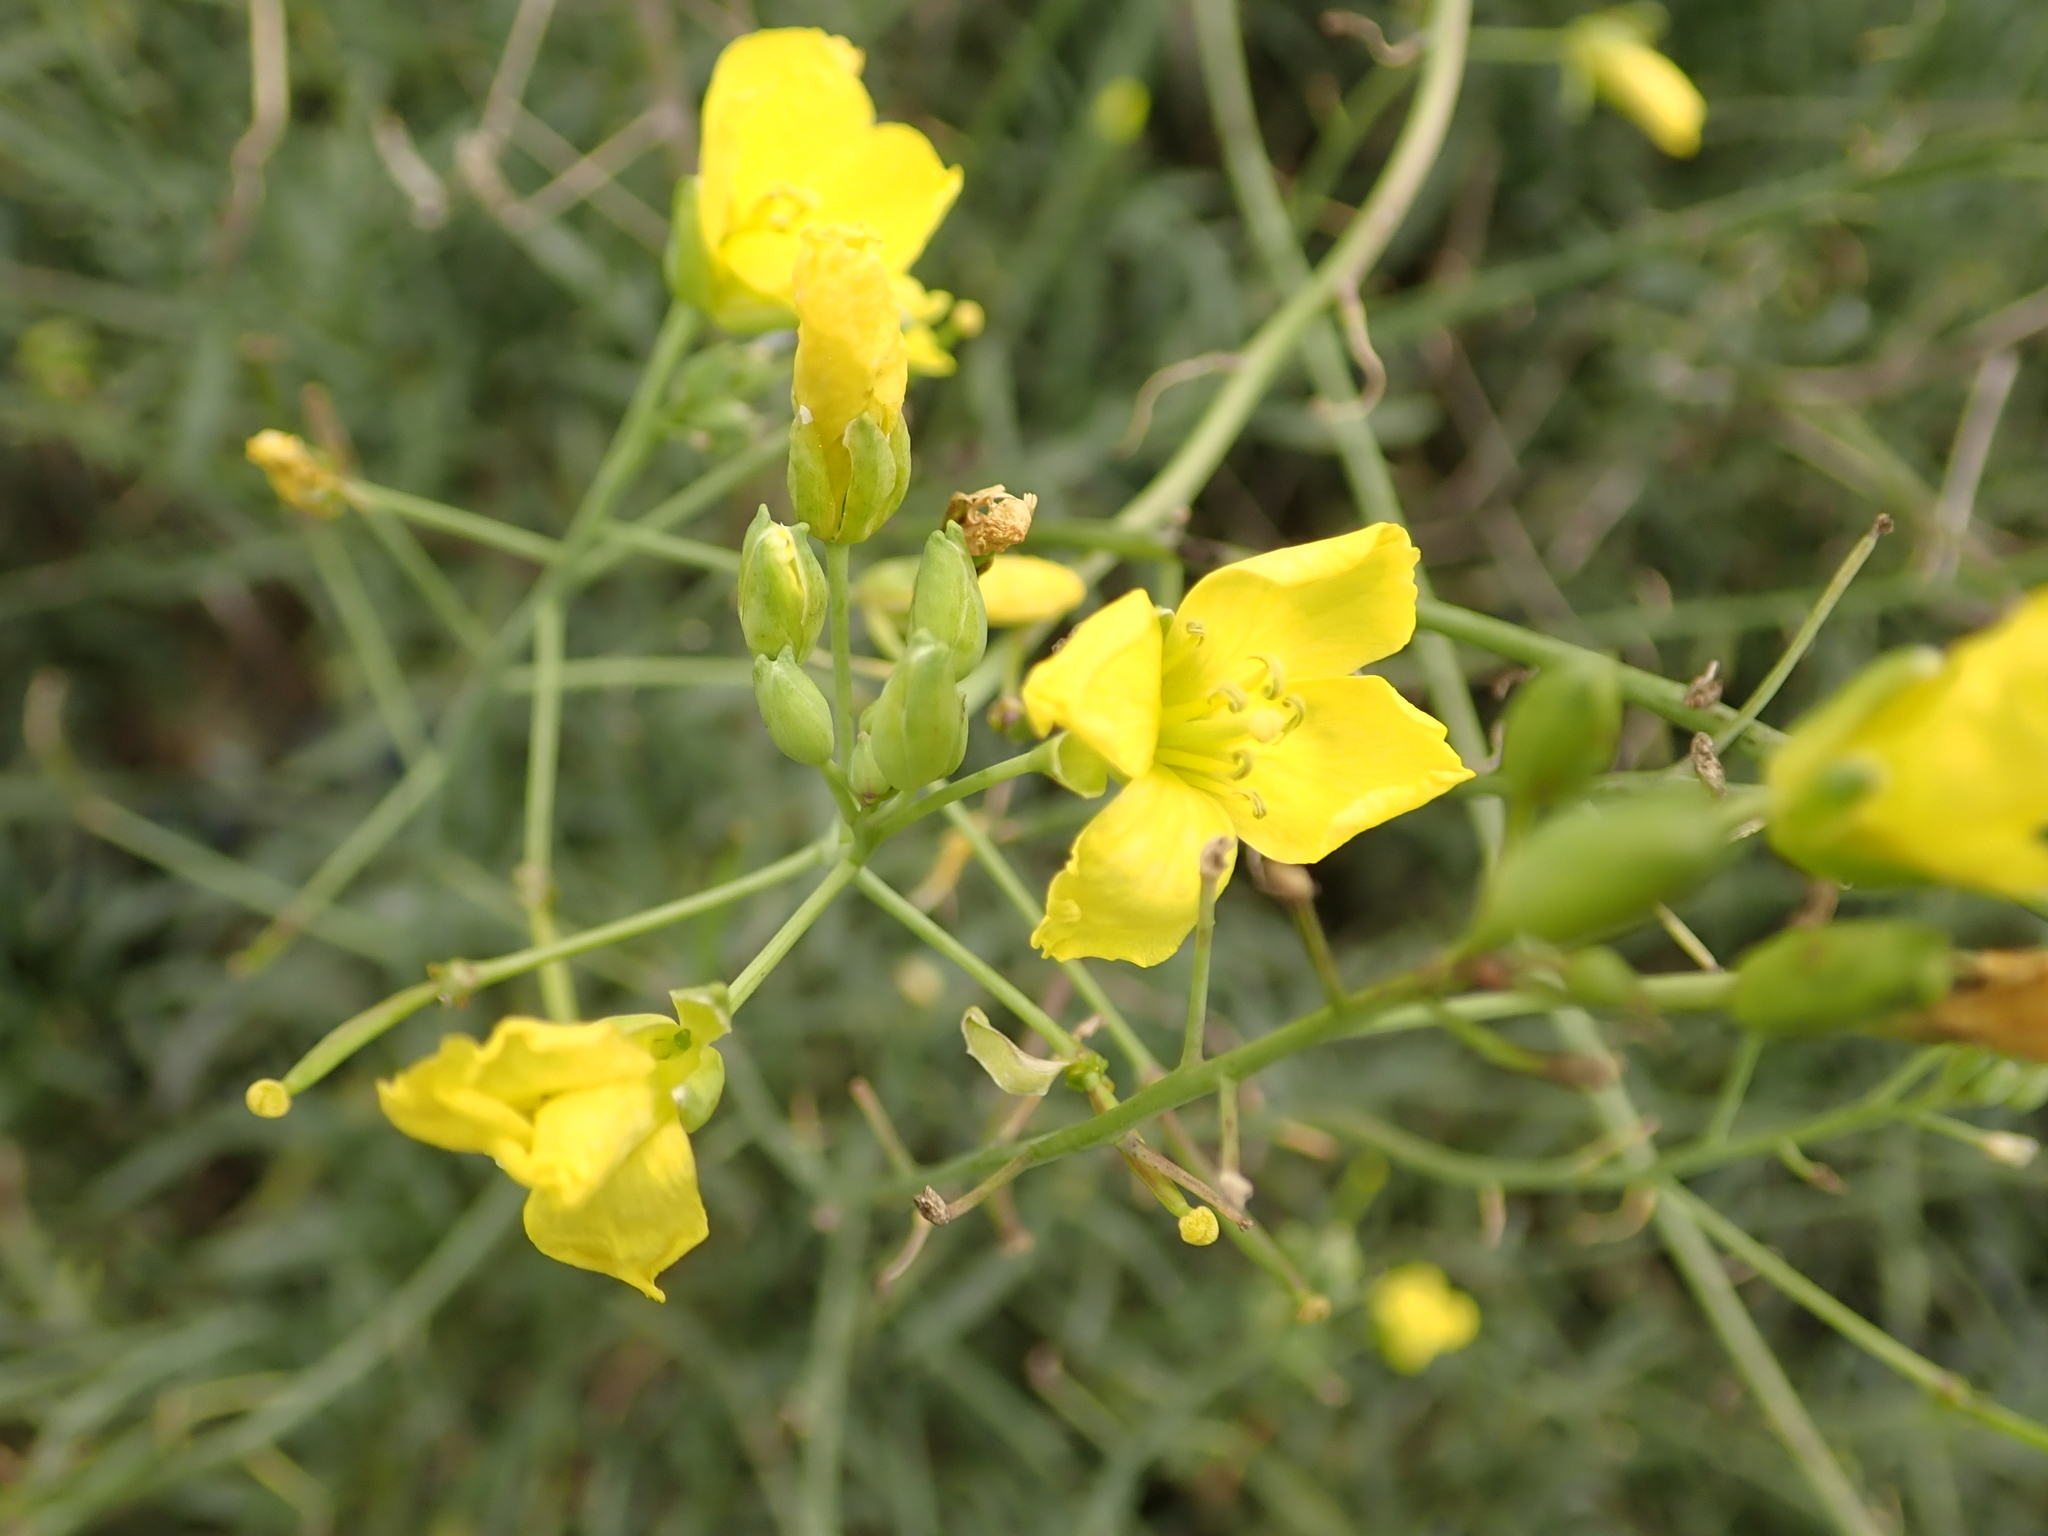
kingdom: Plantae
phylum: Tracheophyta
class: Magnoliopsida
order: Brassicales
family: Brassicaceae
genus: Diplotaxis
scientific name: Diplotaxis tenuifolia
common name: Perennial wall-rocket
